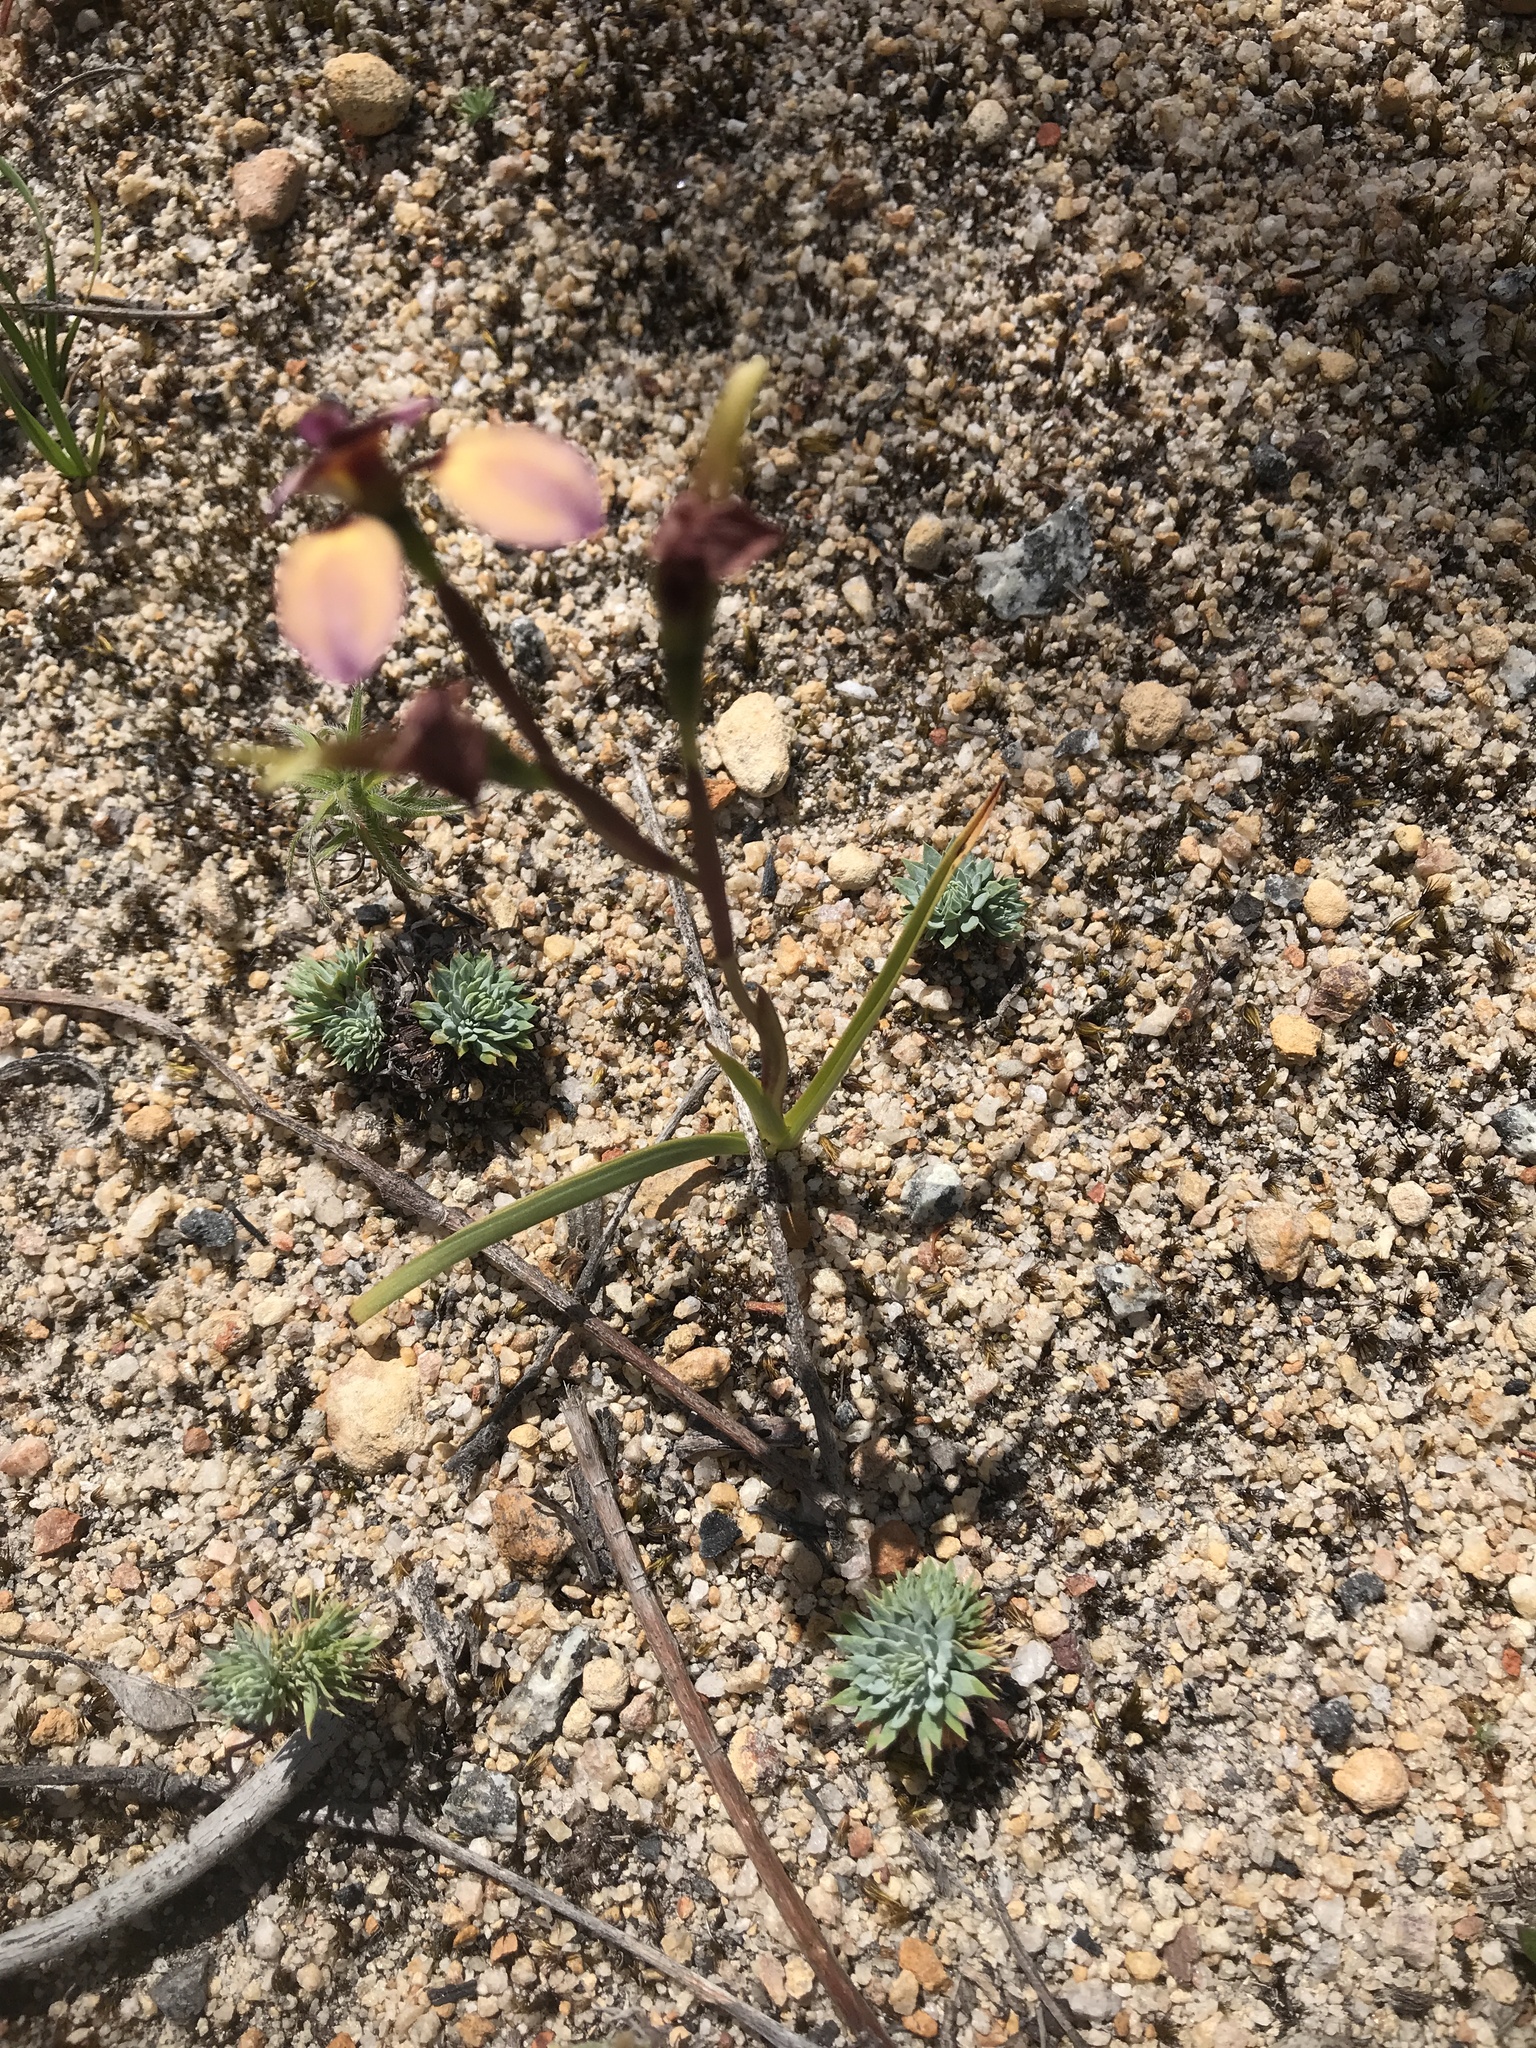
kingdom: Plantae
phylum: Tracheophyta
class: Liliopsida
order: Asparagales
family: Orchidaceae
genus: Diuris
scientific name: Diuris longifolia
